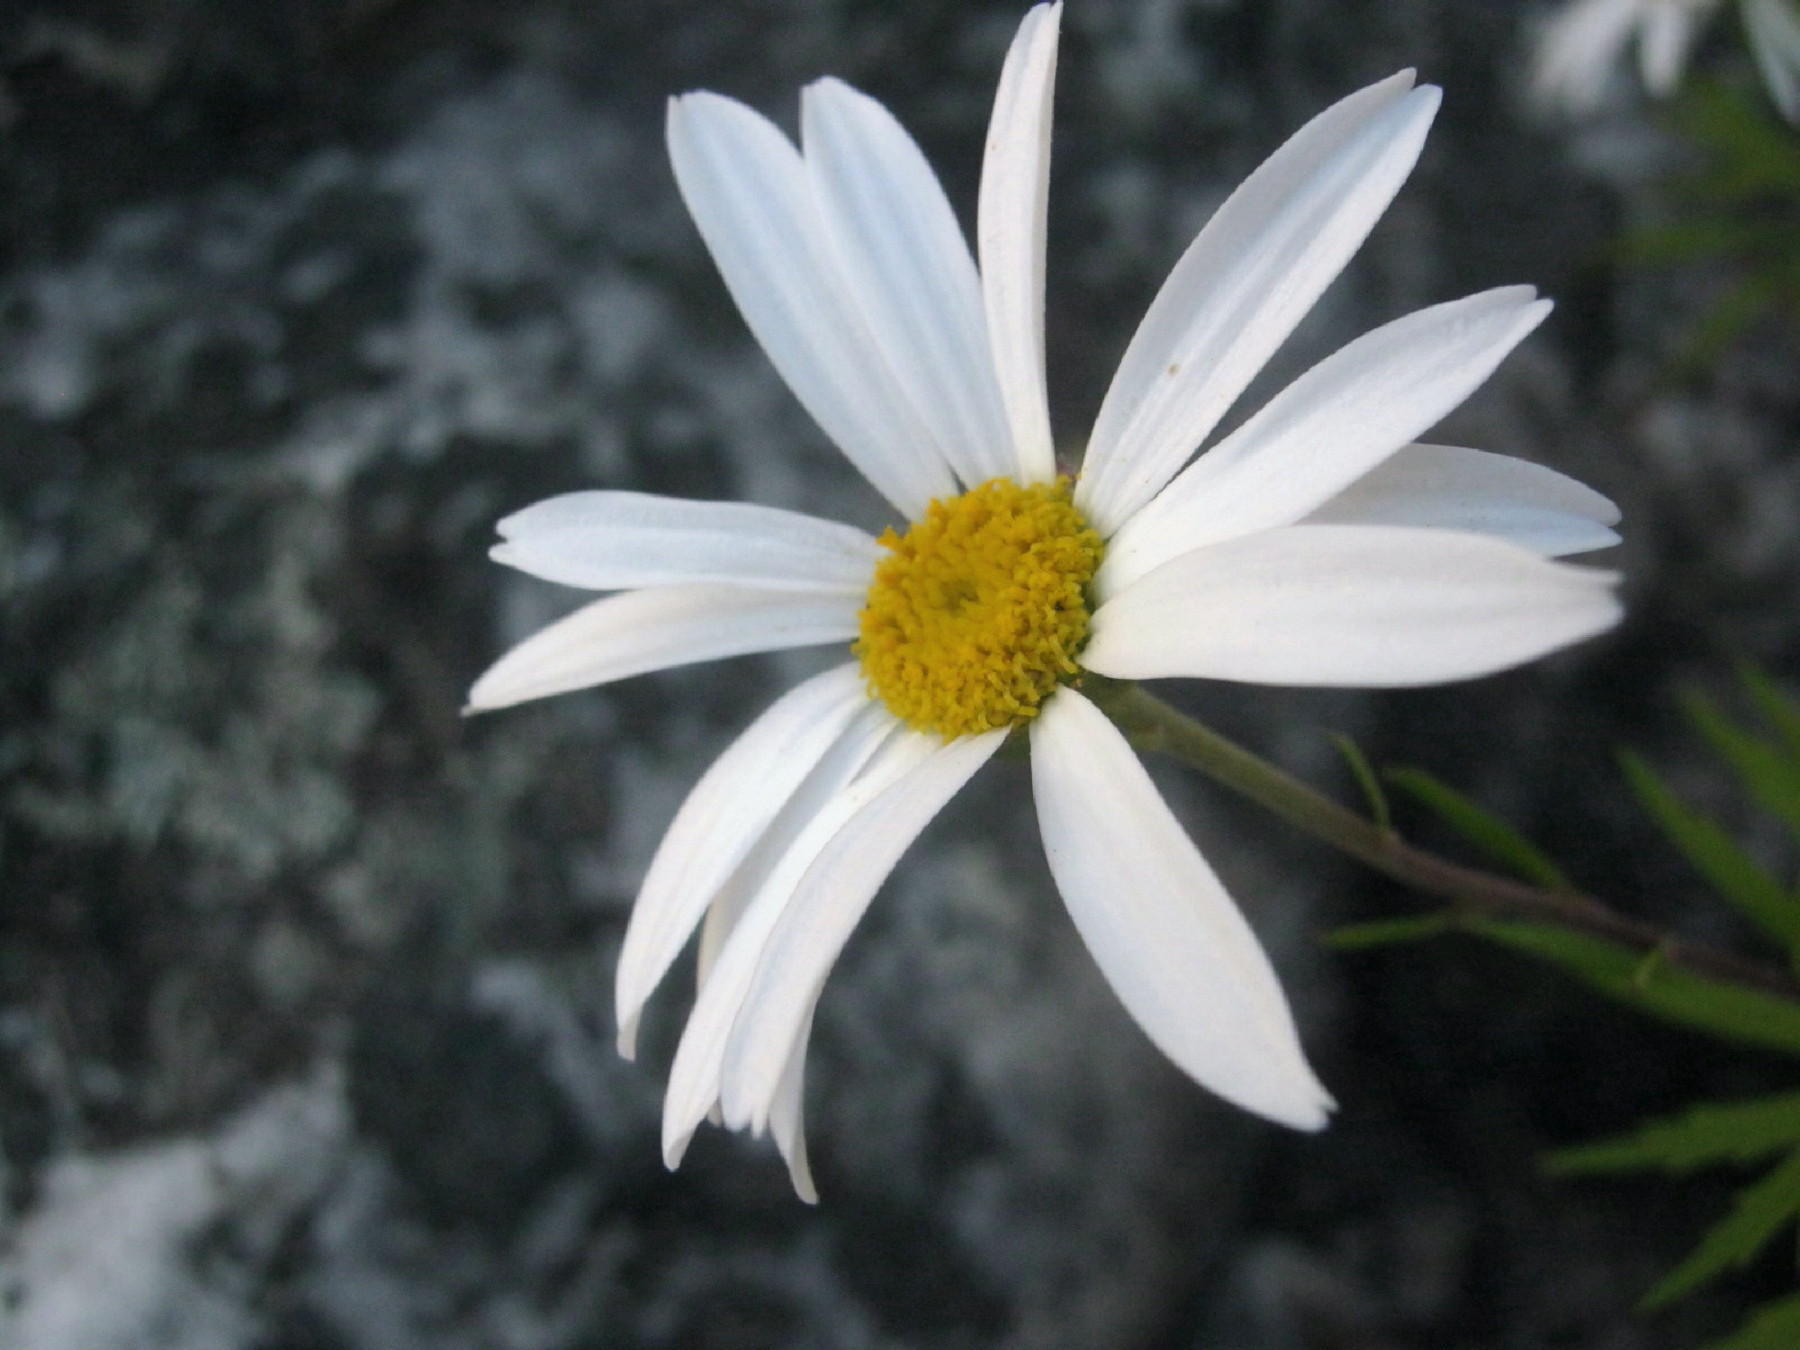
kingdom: Plantae
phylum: Tracheophyta
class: Magnoliopsida
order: Asterales
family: Asteraceae
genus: Osmitopsis
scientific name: Osmitopsis osmitoides
